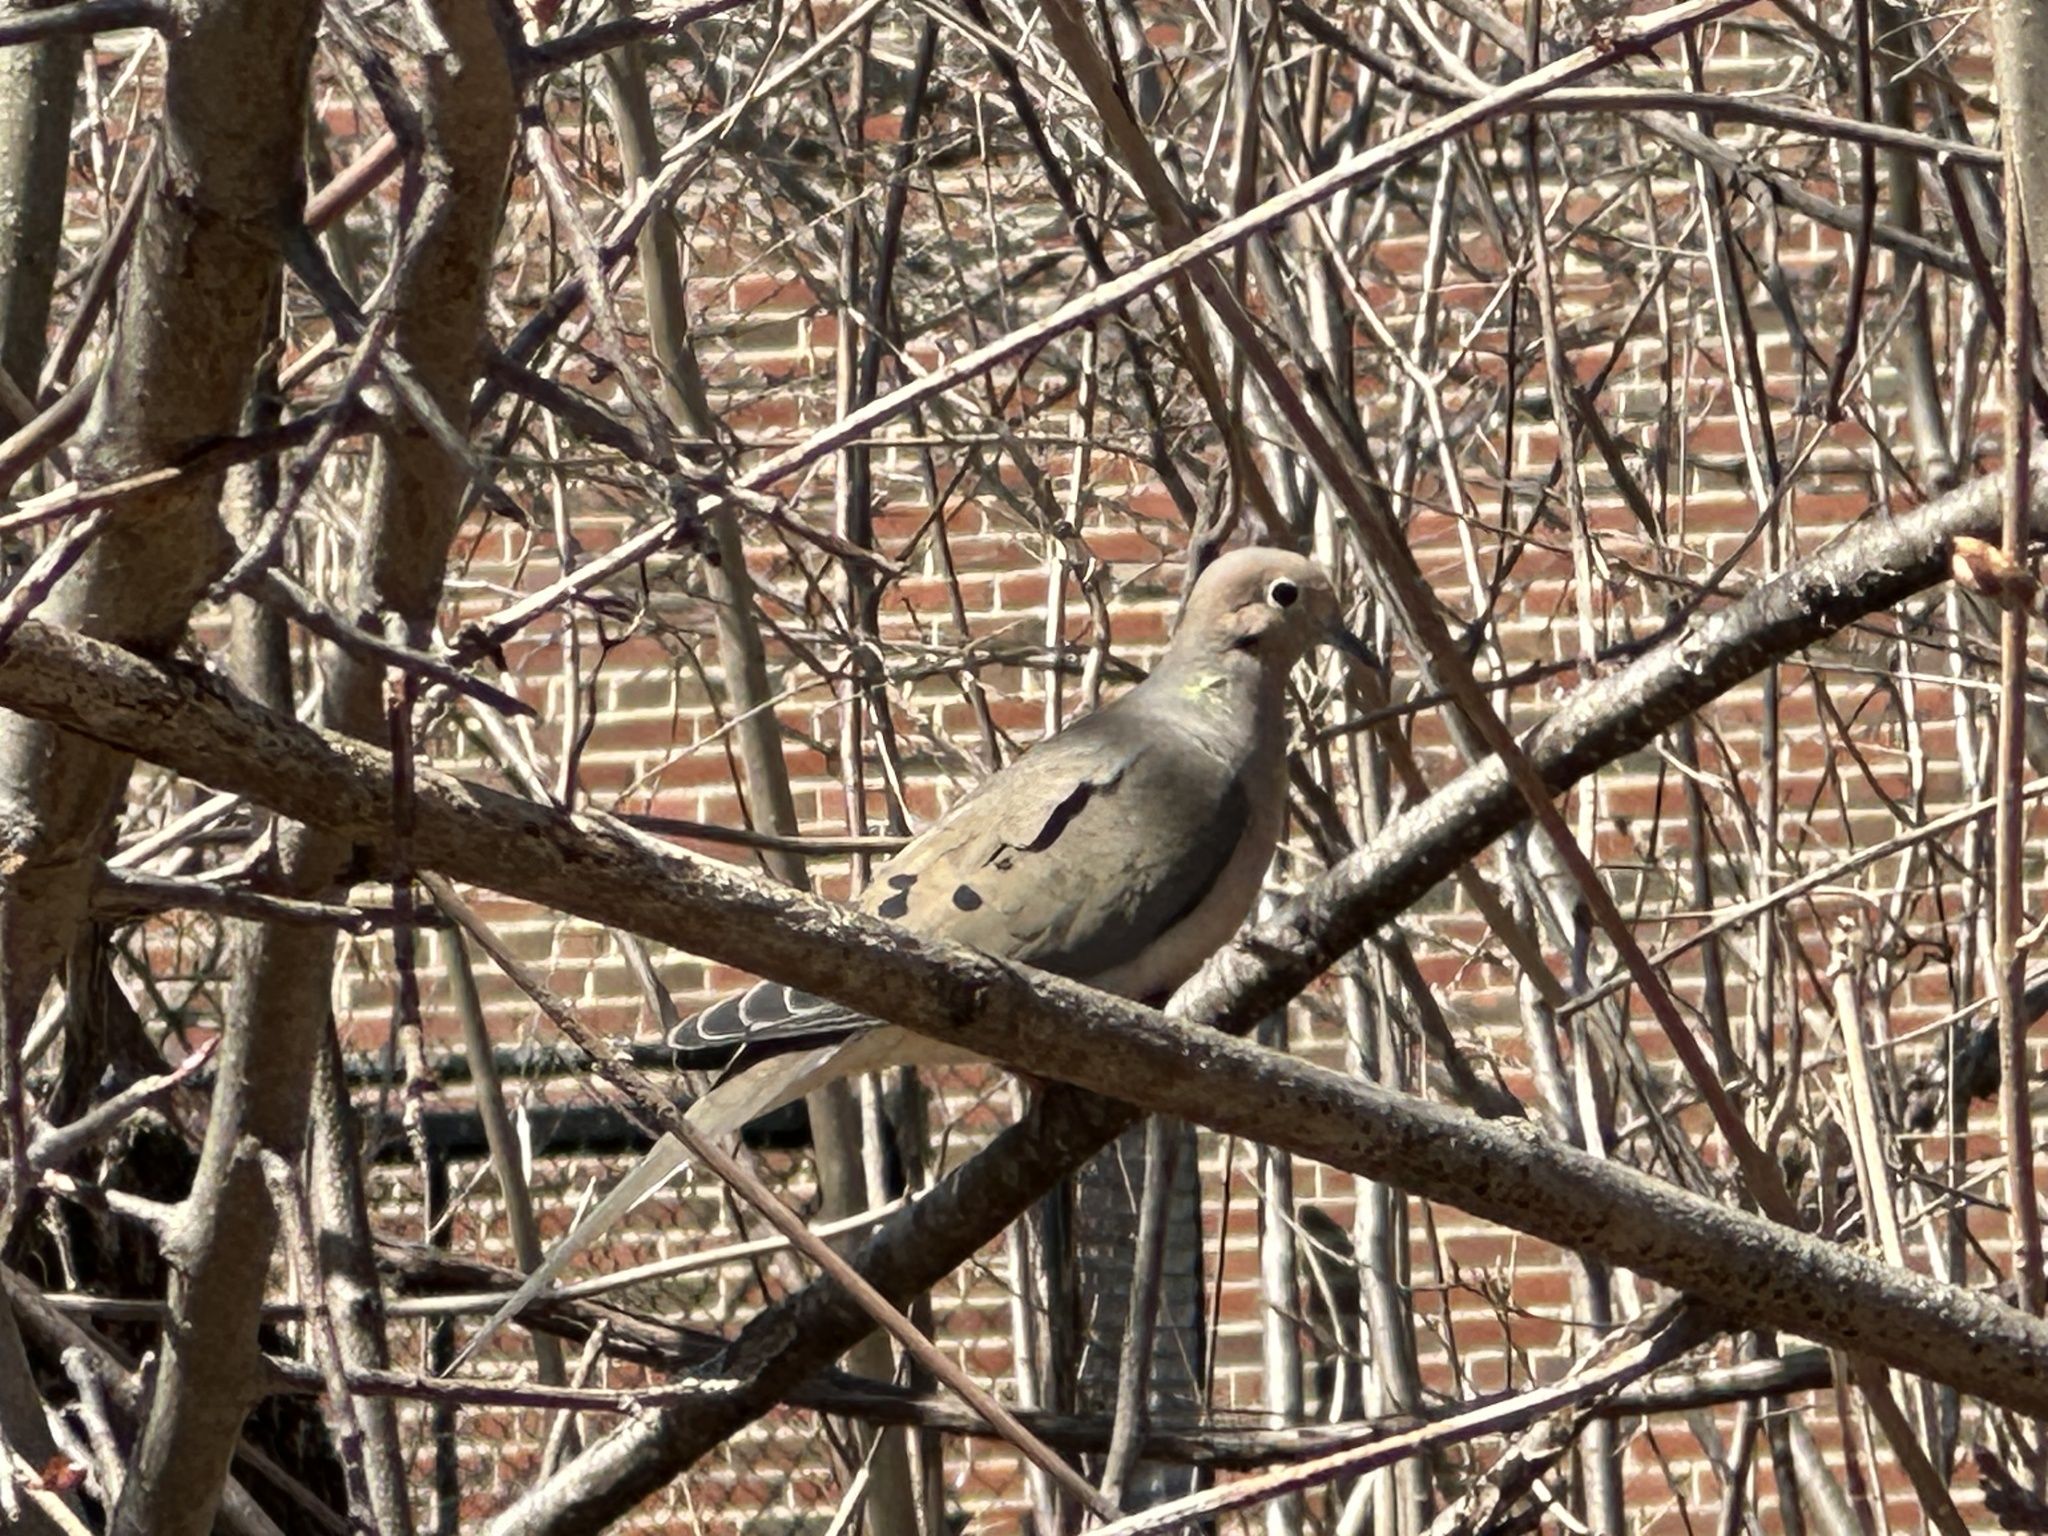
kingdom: Animalia
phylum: Chordata
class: Aves
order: Columbiformes
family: Columbidae
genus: Zenaida
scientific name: Zenaida macroura
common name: Mourning dove
